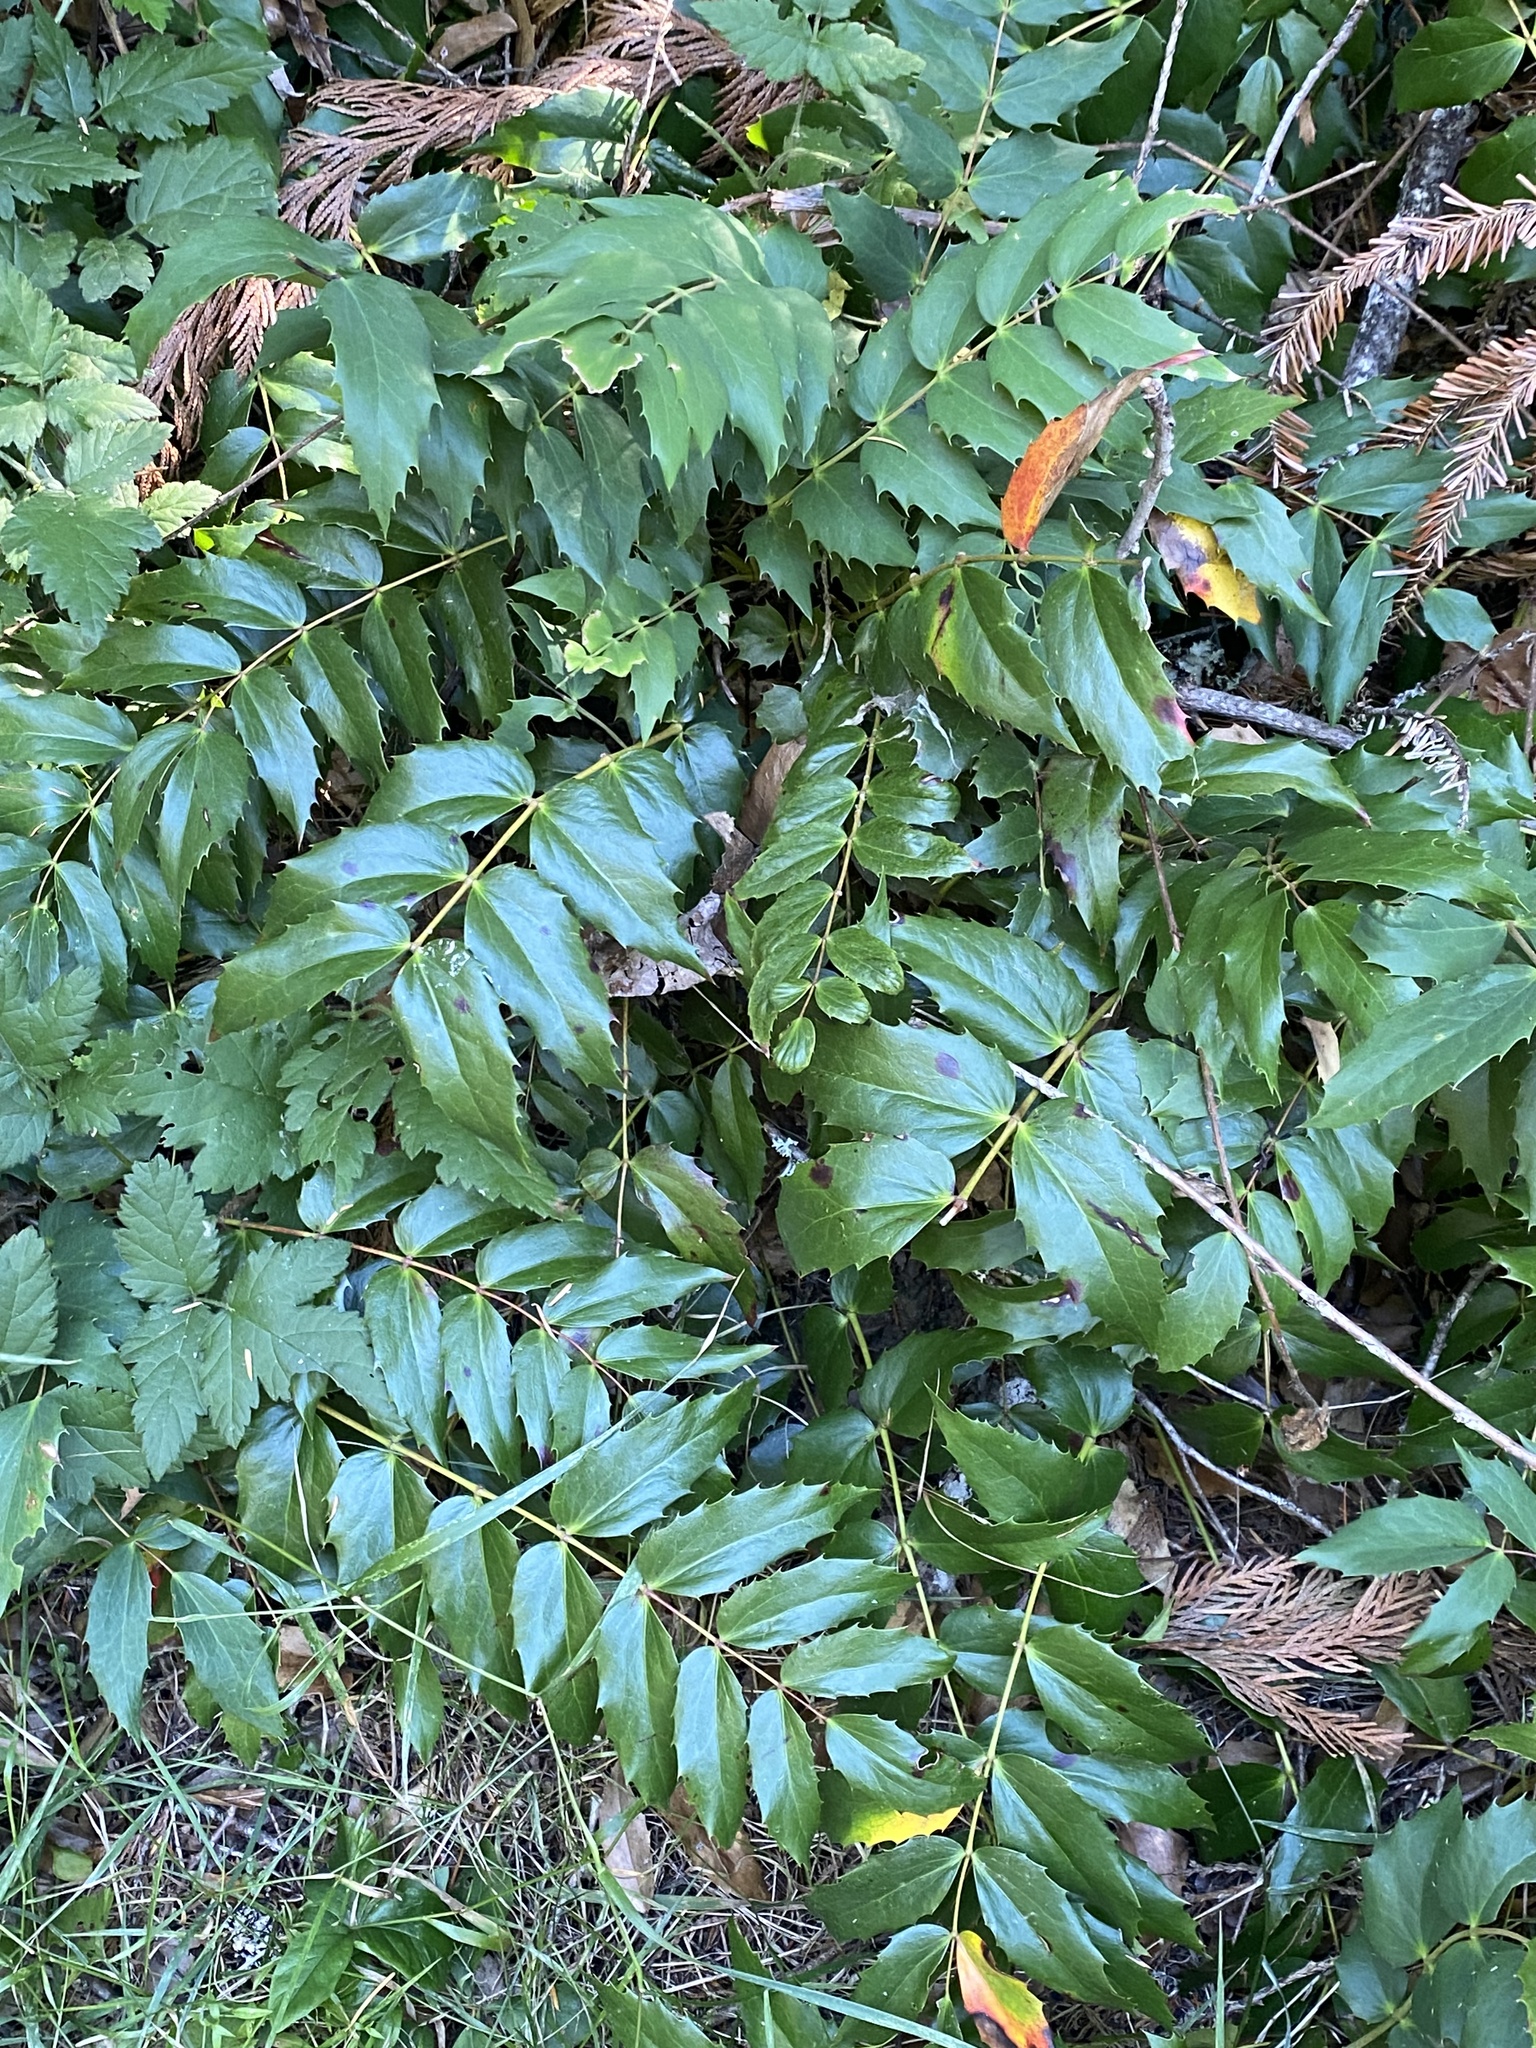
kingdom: Plantae
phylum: Tracheophyta
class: Magnoliopsida
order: Ranunculales
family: Berberidaceae
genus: Mahonia
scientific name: Mahonia nervosa
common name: Cascade oregon-grape
